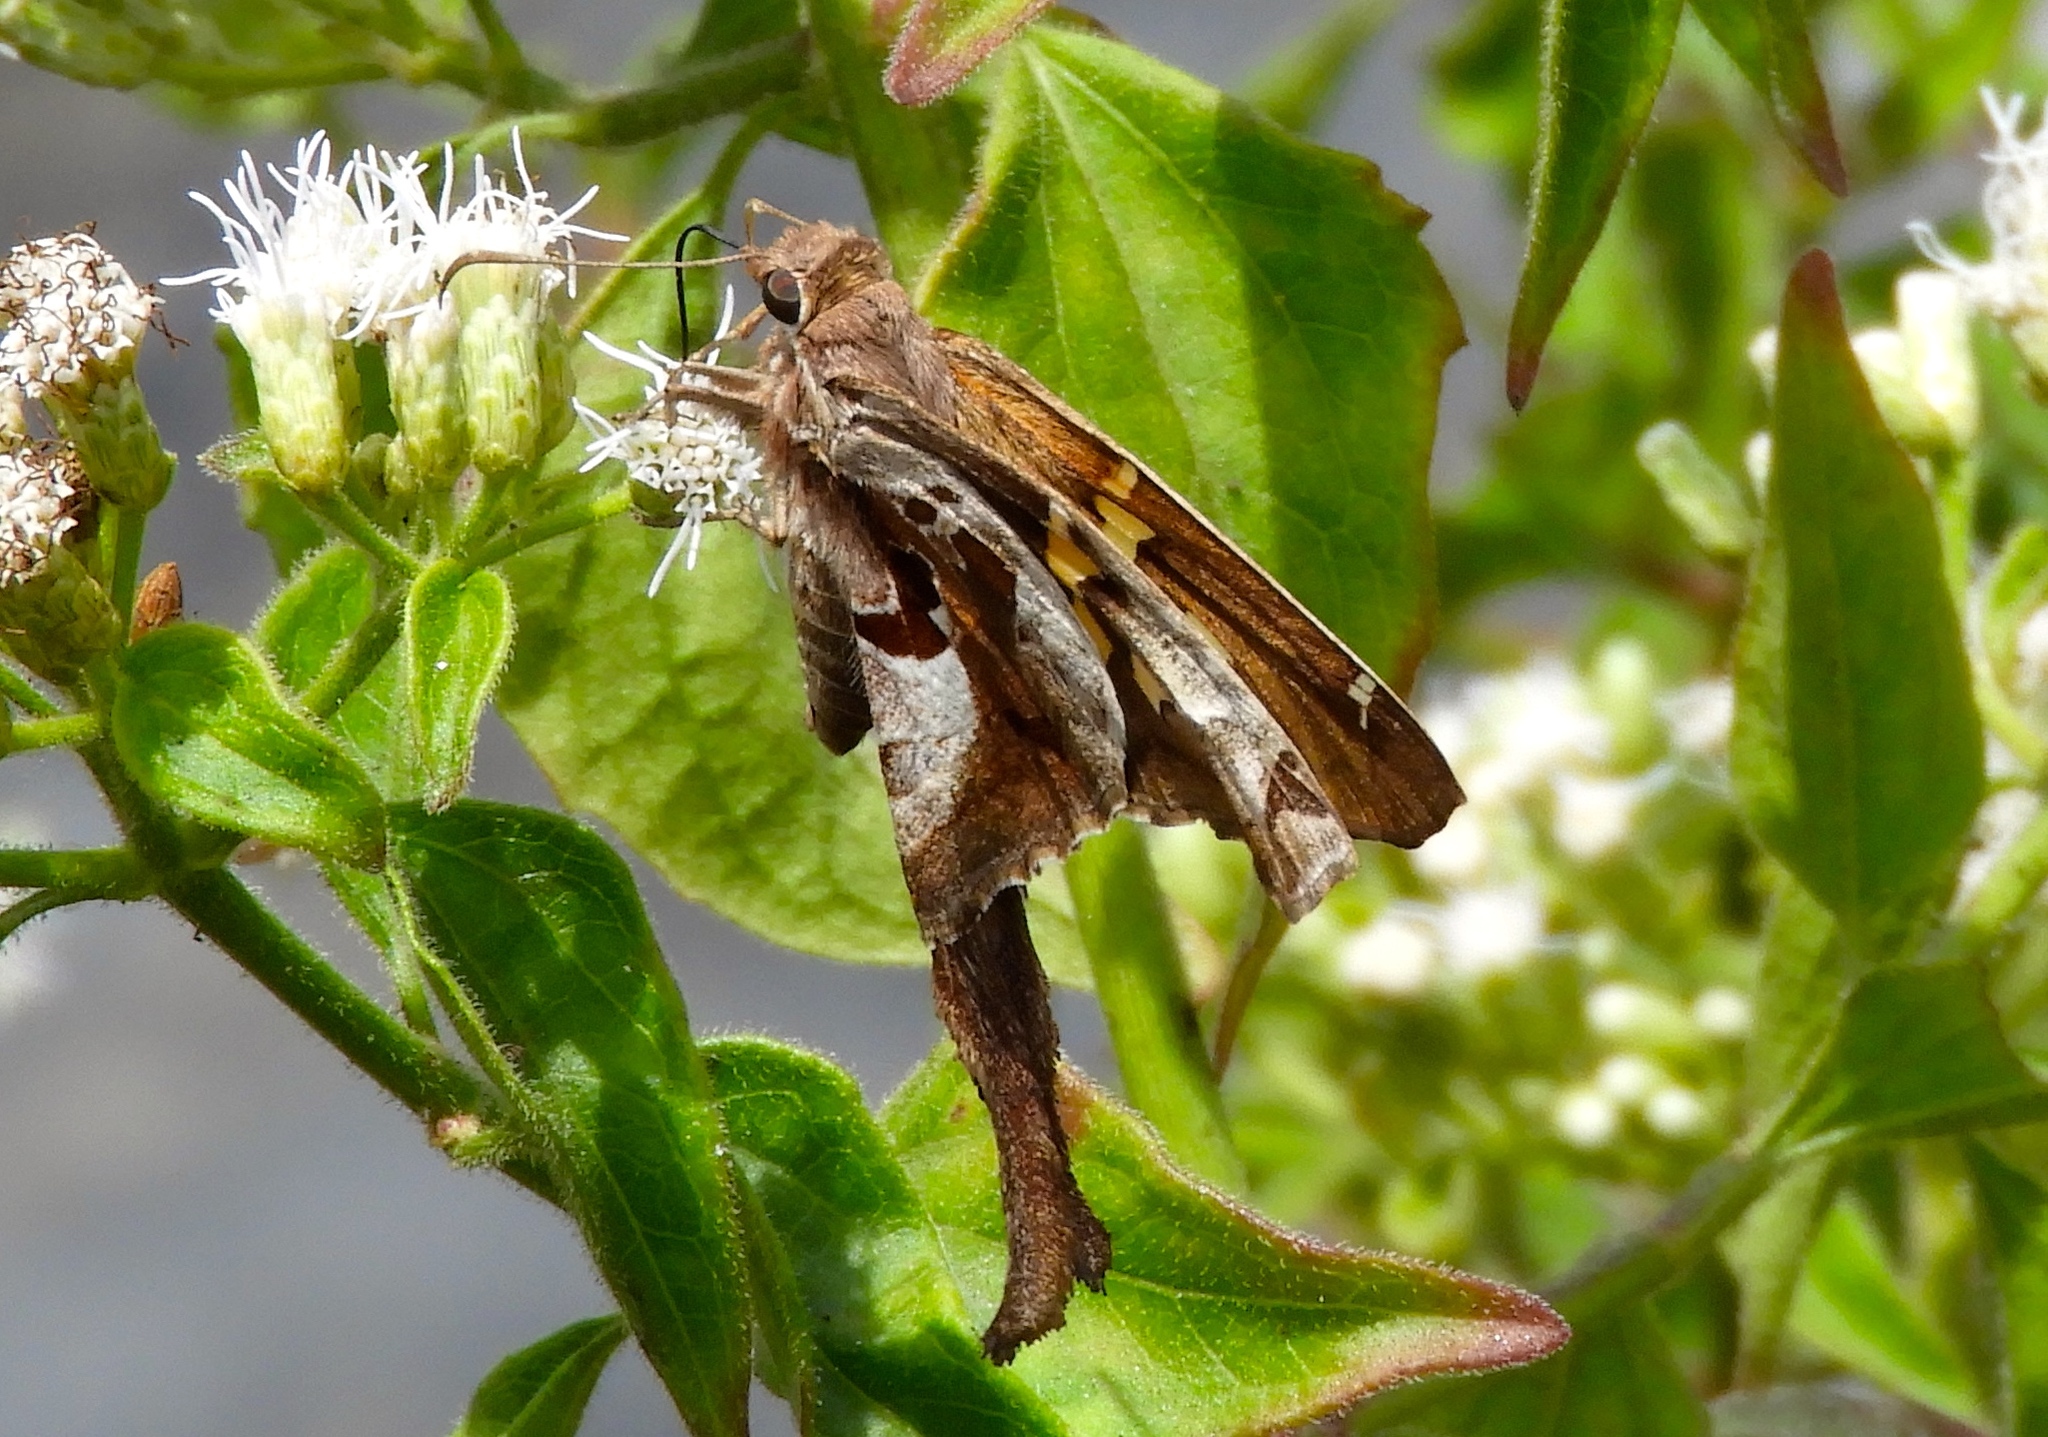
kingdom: Animalia
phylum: Arthropoda
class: Insecta
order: Lepidoptera
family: Hesperiidae
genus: Chioides
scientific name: Chioides zilpa
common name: Zilpa longtail
